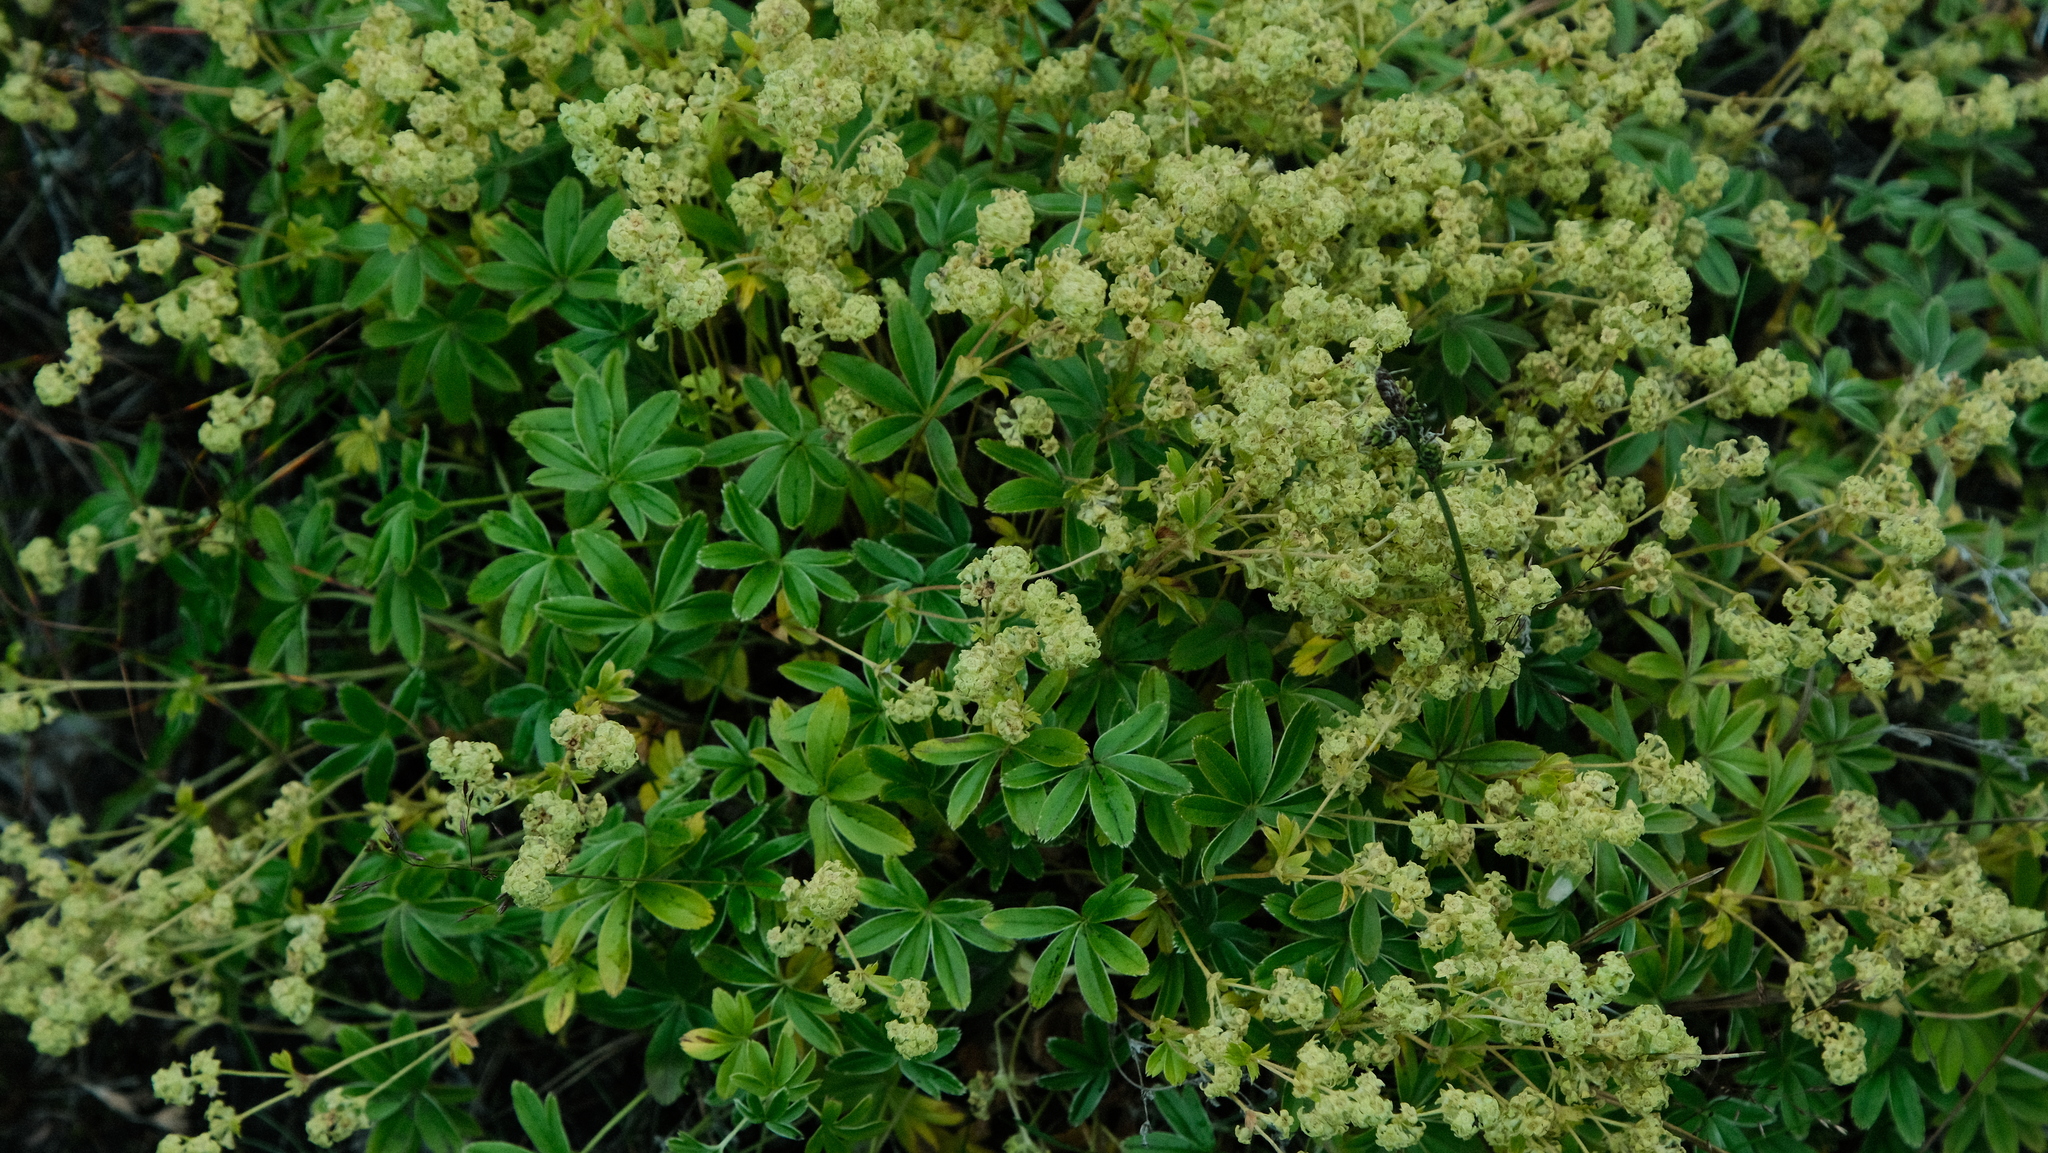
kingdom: Plantae
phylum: Tracheophyta
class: Magnoliopsida
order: Rosales
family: Rosaceae
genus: Alchemilla
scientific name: Alchemilla alpina
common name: Alpine lady's-mantle
